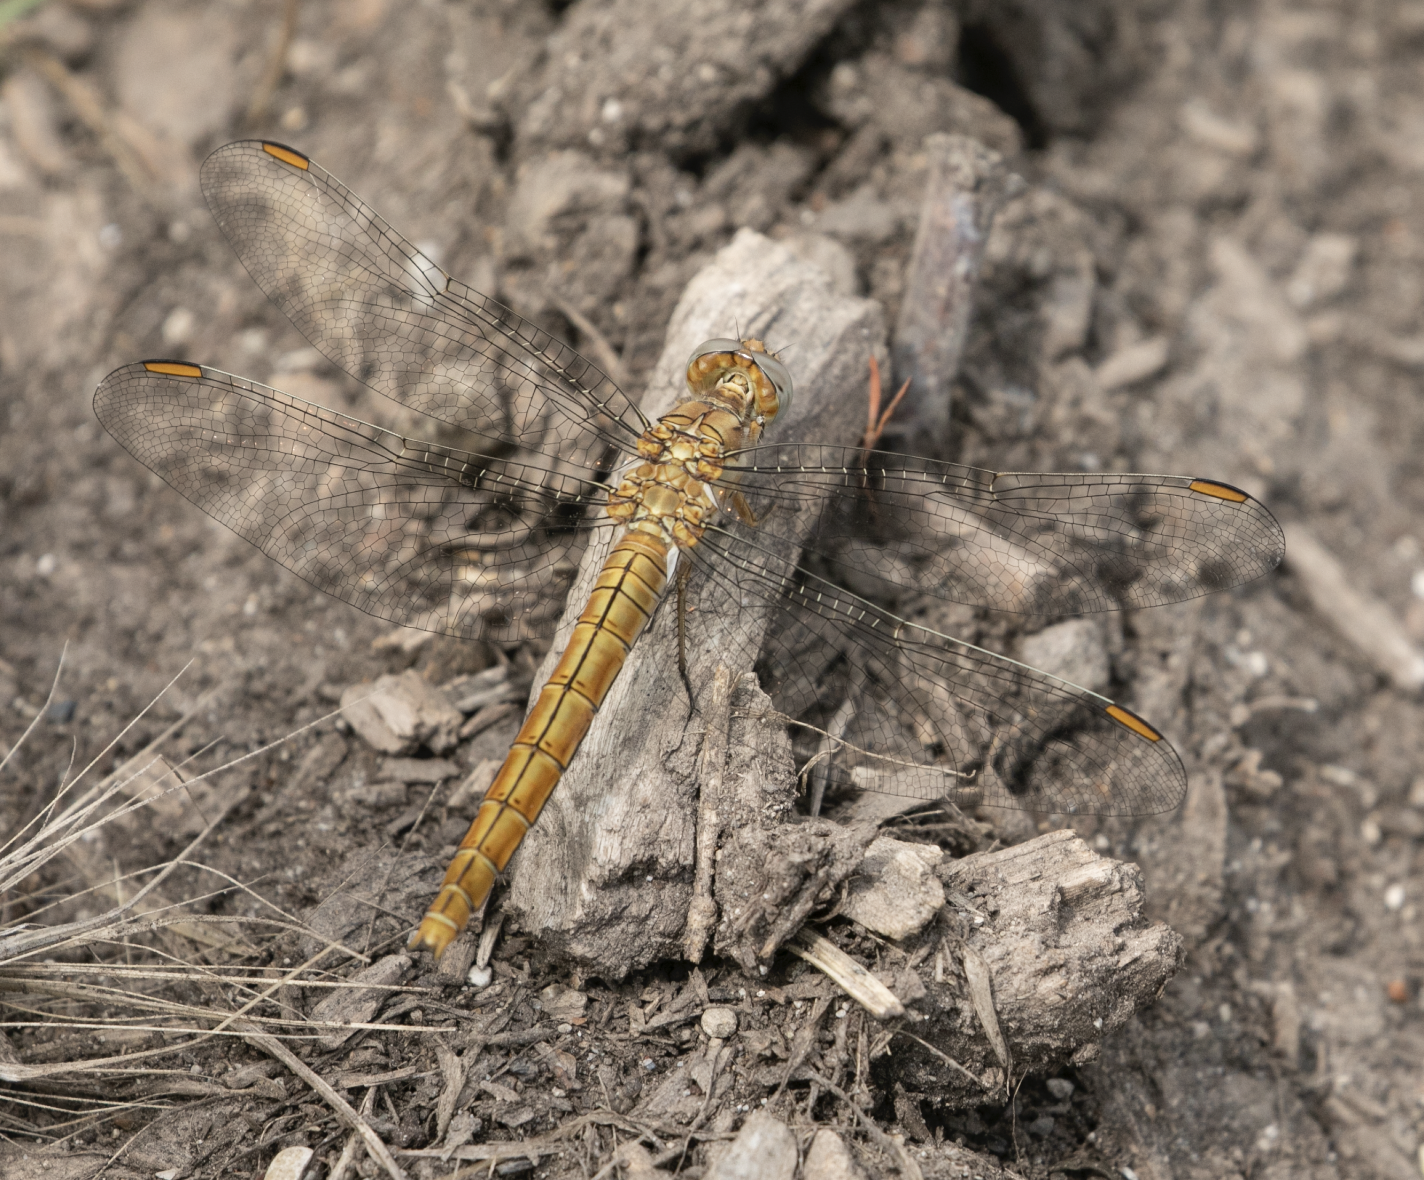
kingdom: Animalia
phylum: Arthropoda
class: Insecta
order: Odonata
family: Libellulidae
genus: Orthetrum
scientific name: Orthetrum brunneum
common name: Southern skimmer
